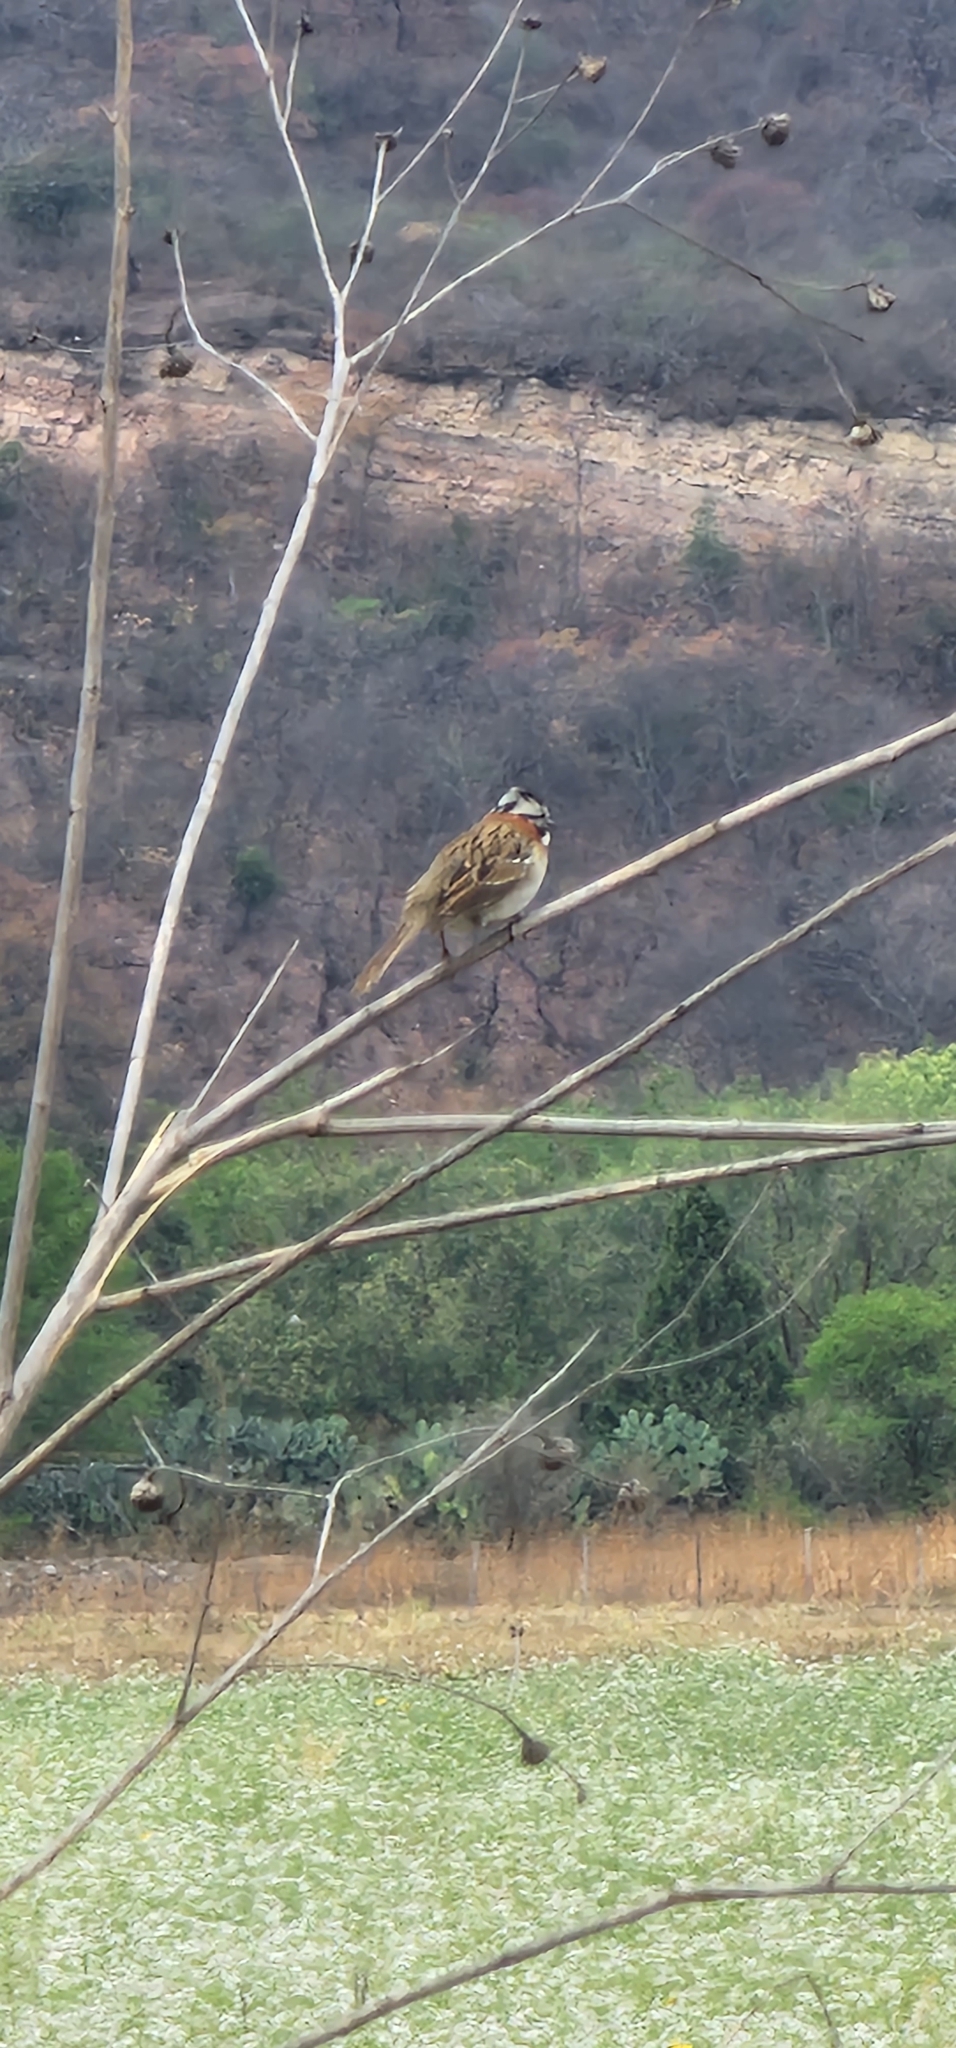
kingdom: Animalia
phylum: Chordata
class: Aves
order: Passeriformes
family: Passerellidae
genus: Zonotrichia
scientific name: Zonotrichia capensis
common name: Rufous-collared sparrow
